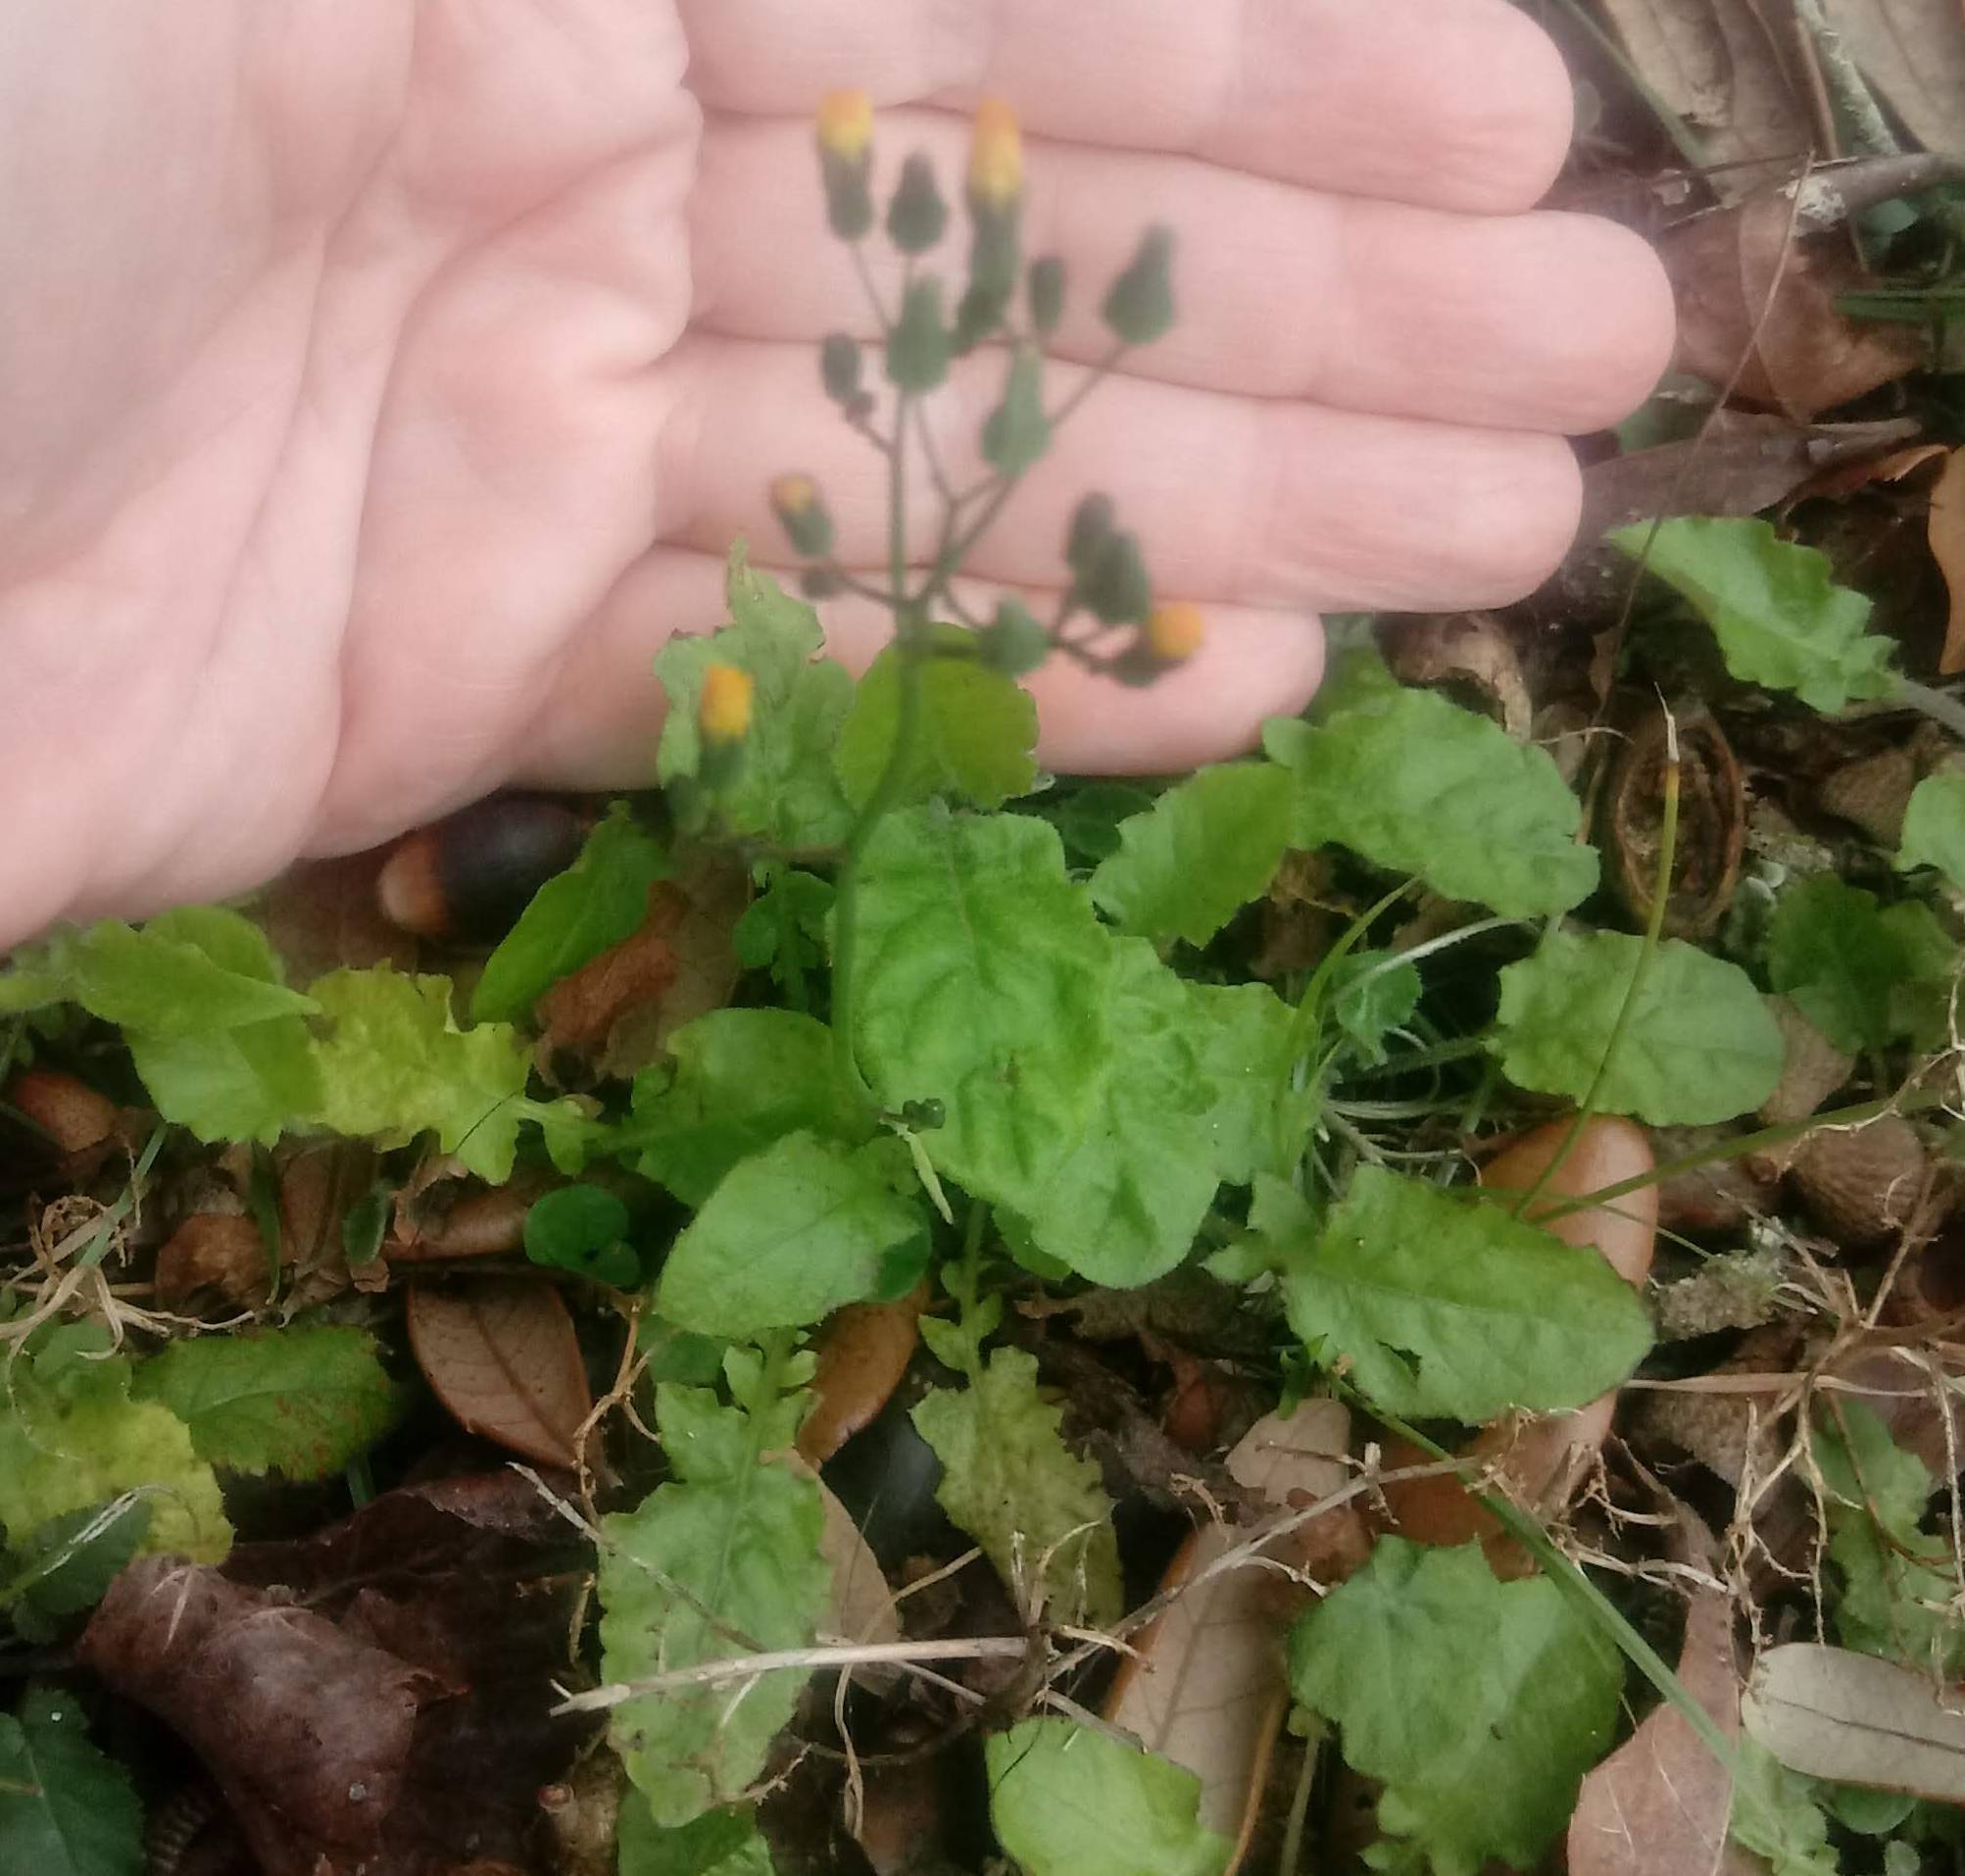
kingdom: Plantae
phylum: Tracheophyta
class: Magnoliopsida
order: Asterales
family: Asteraceae
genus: Youngia
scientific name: Youngia japonica
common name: Oriental false hawksbeard
